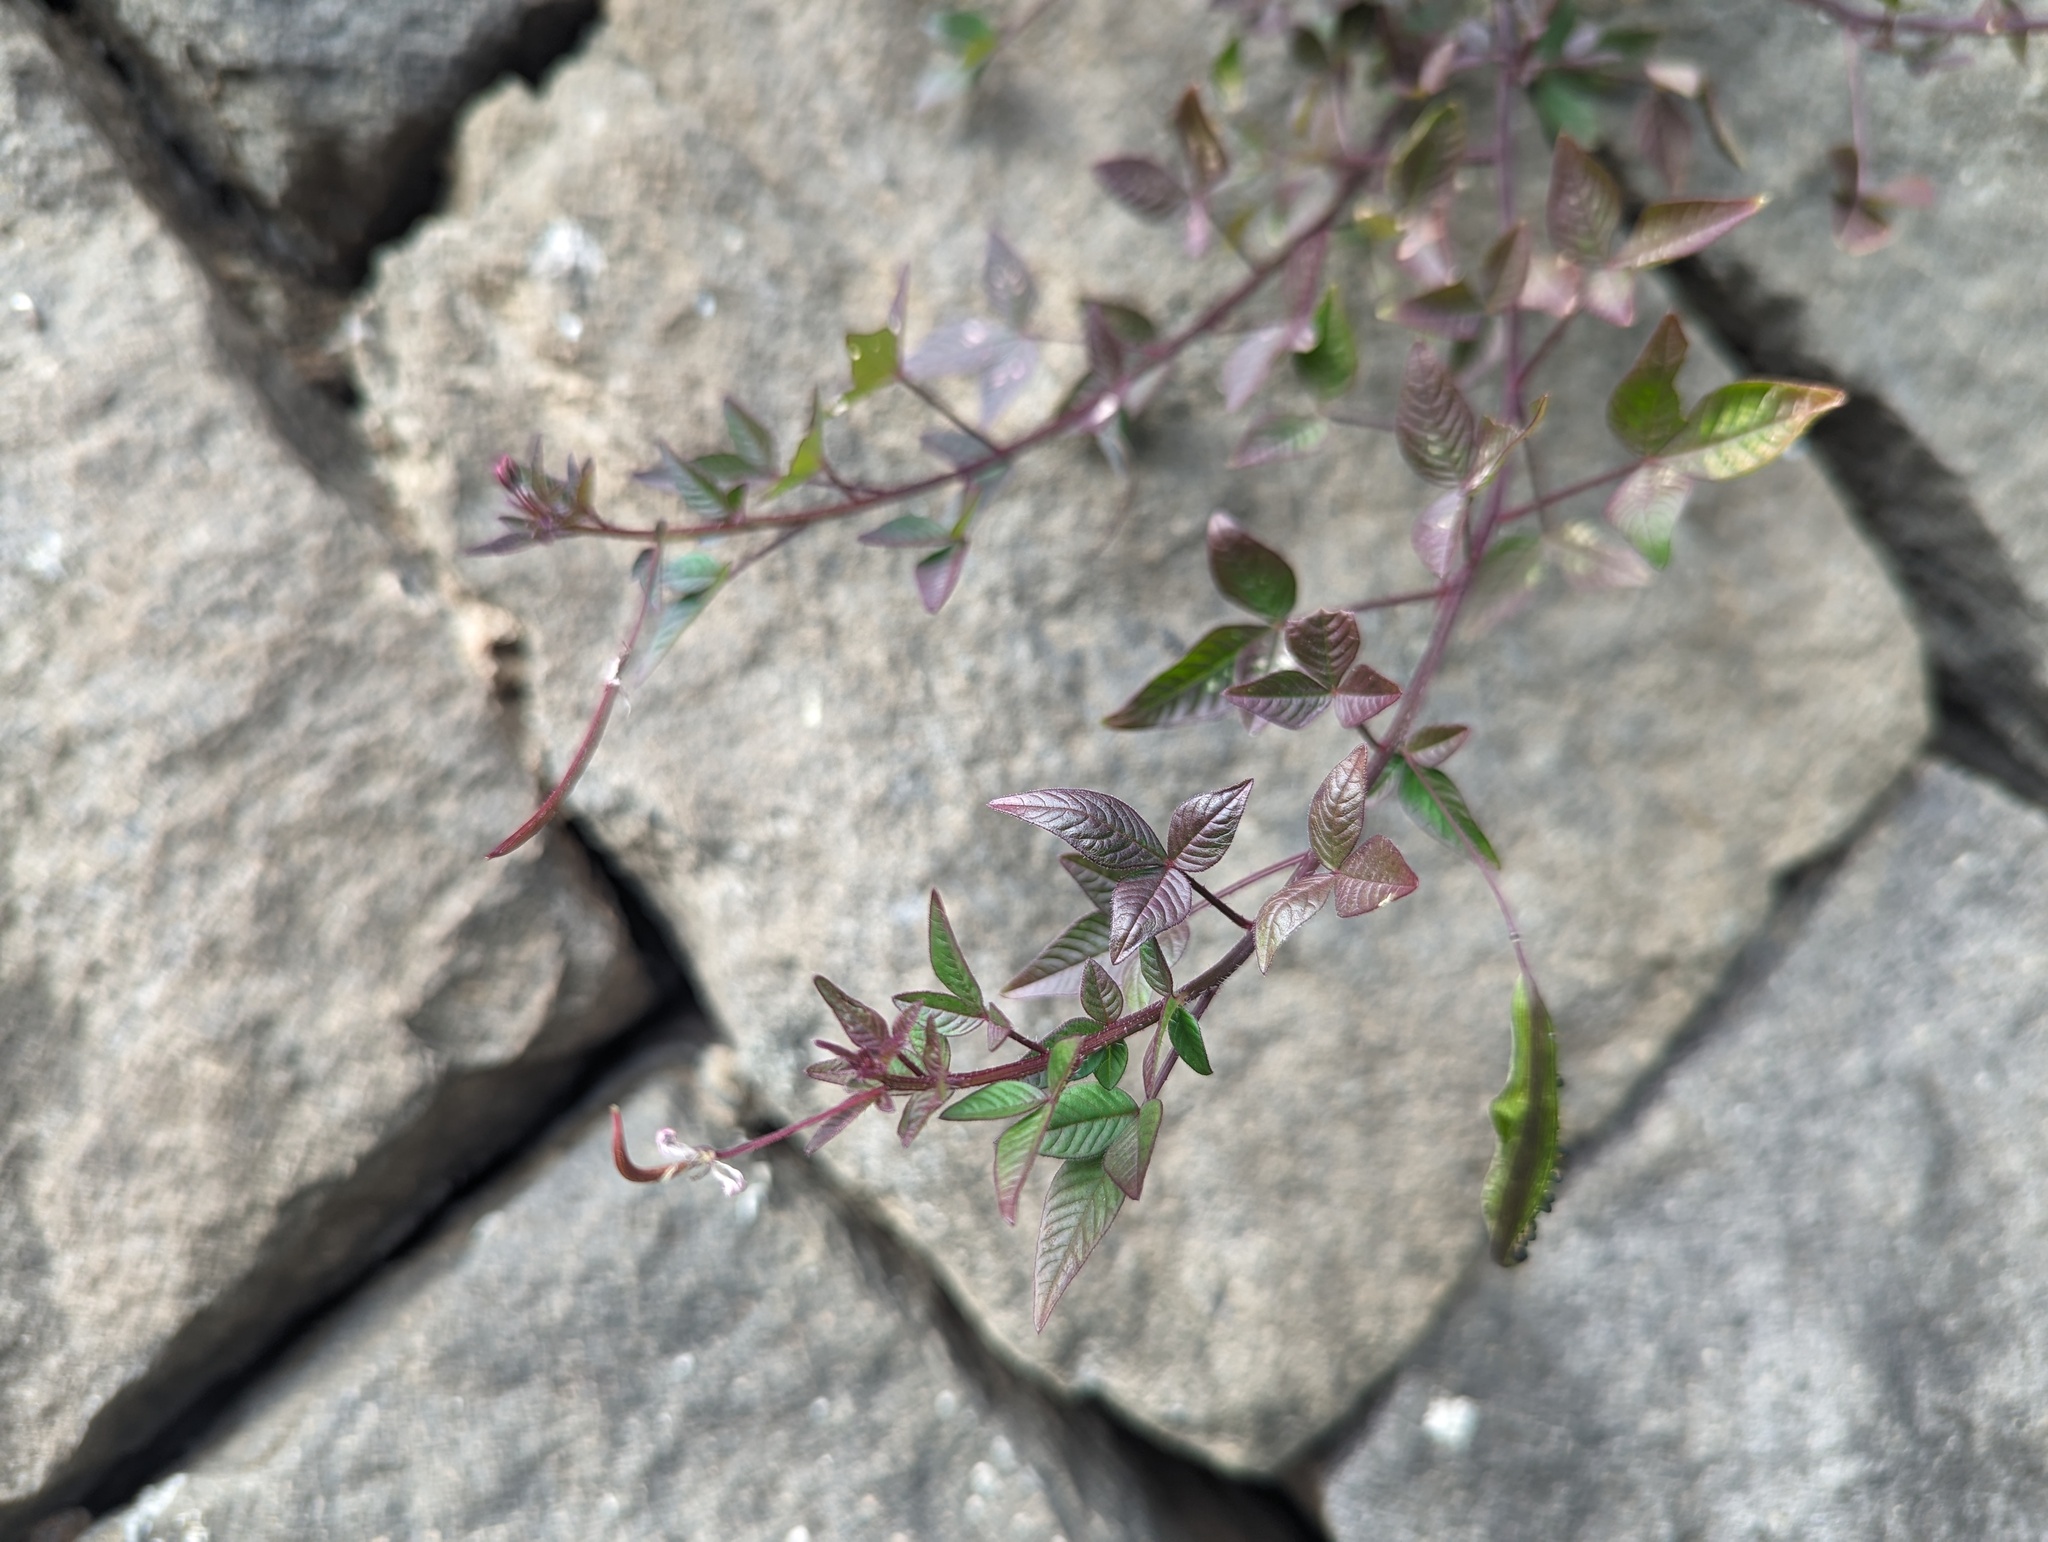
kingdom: Plantae
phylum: Tracheophyta
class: Magnoliopsida
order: Brassicales
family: Cleomaceae
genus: Sieruela
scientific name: Sieruela rutidosperma
